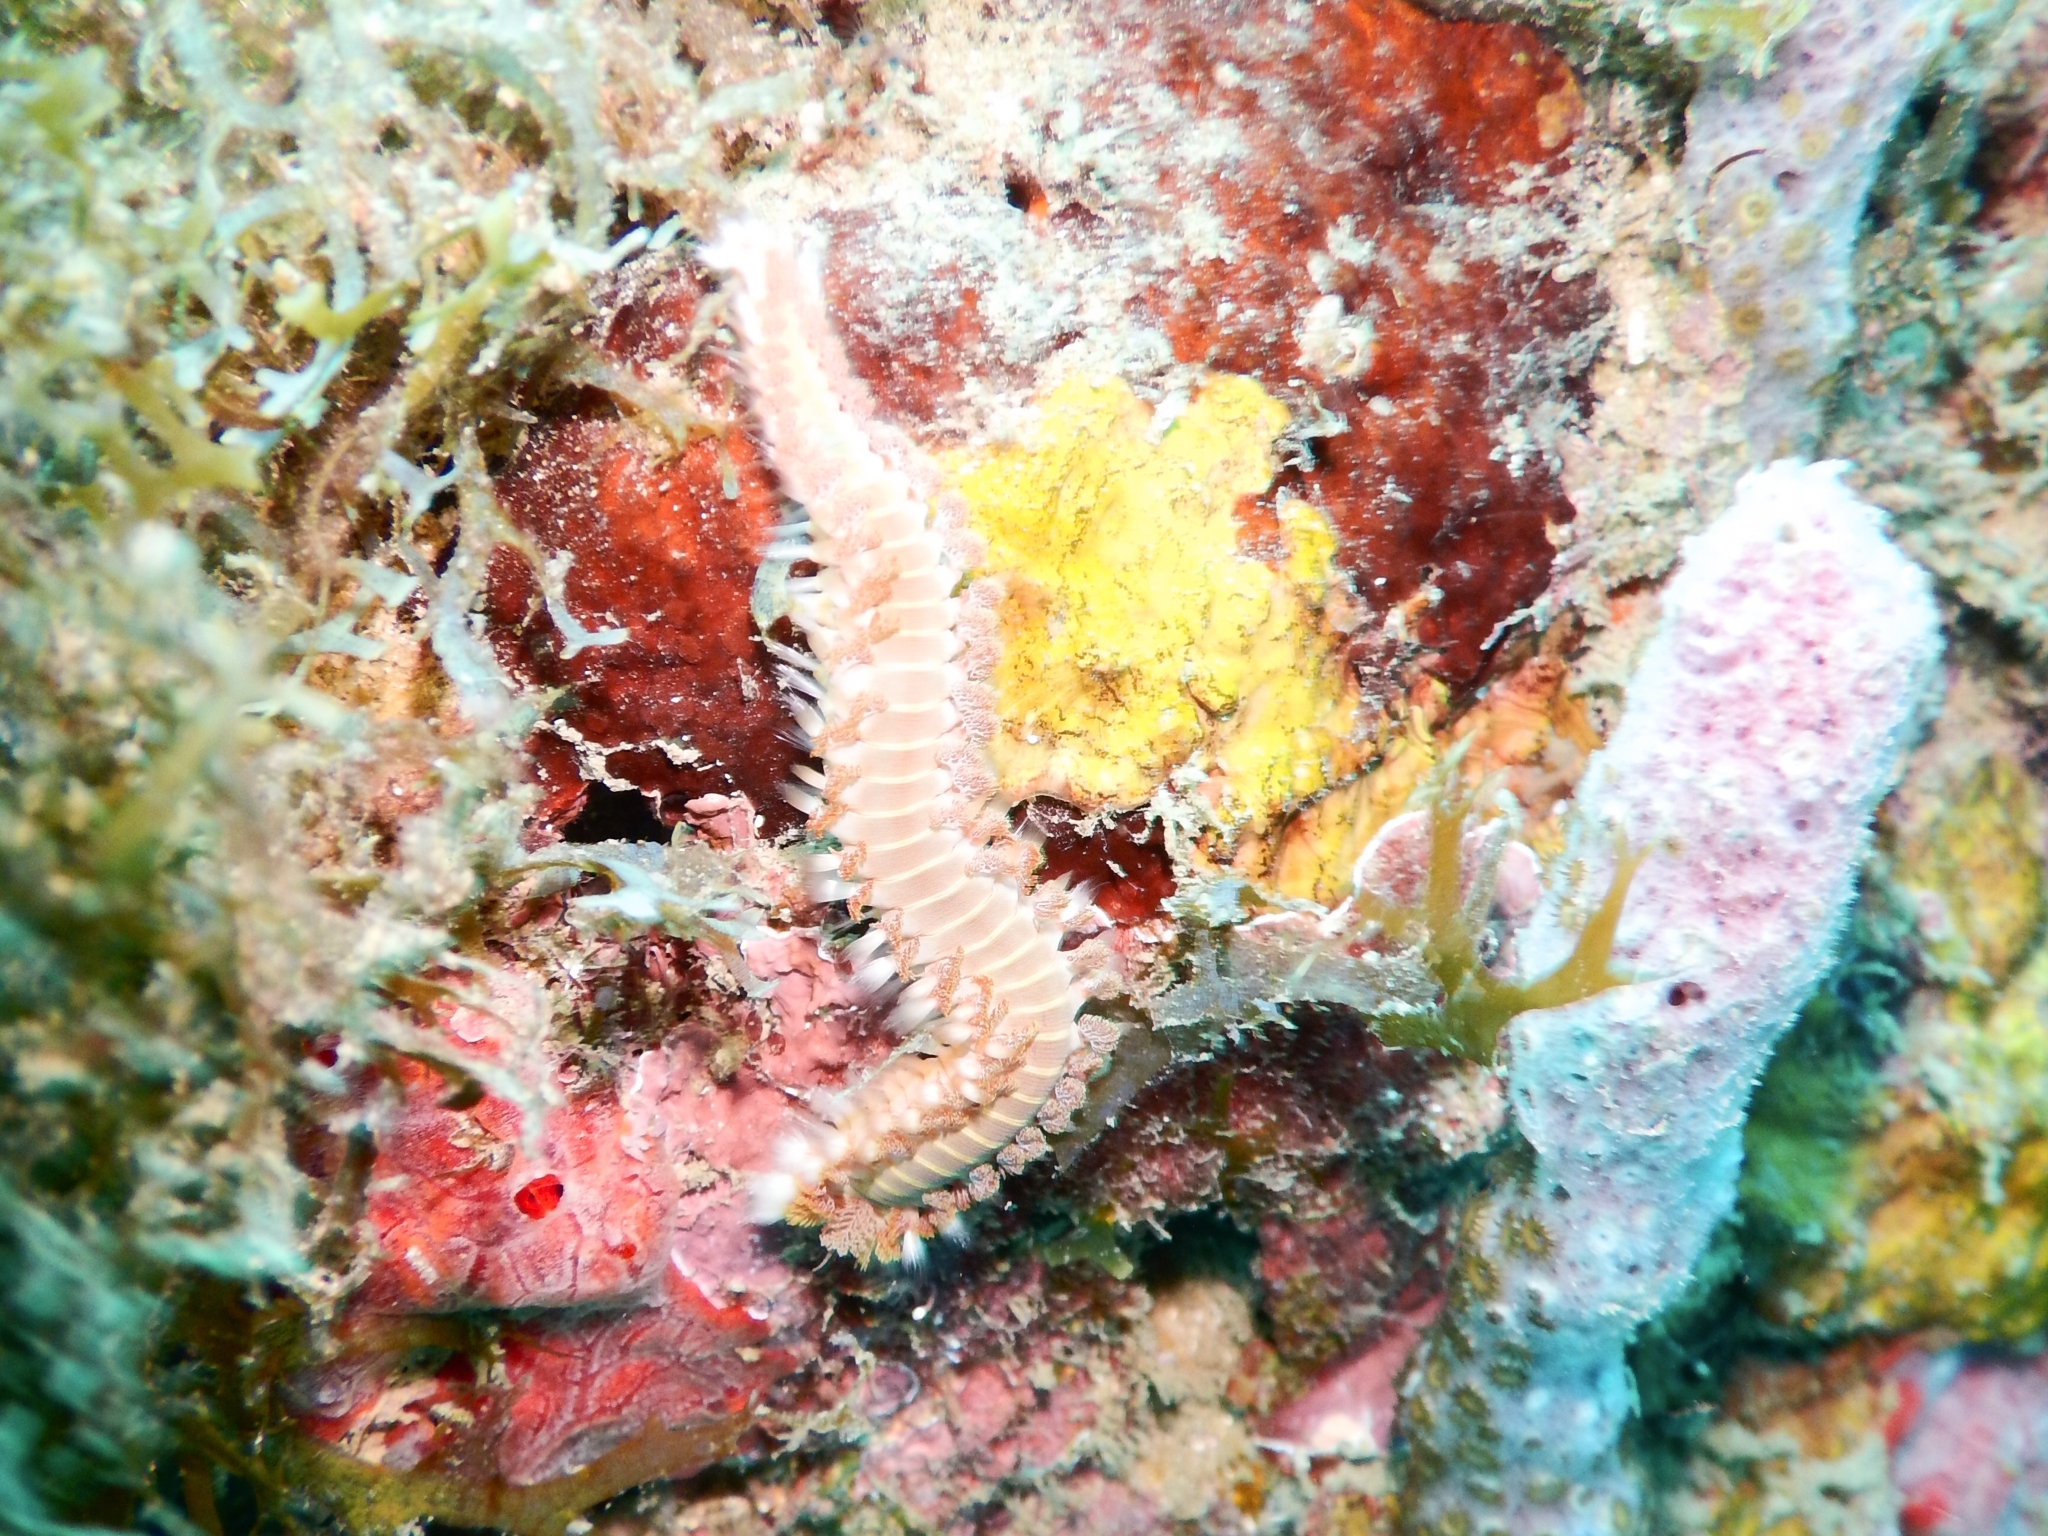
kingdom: Animalia
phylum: Annelida
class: Polychaeta
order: Amphinomida
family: Amphinomidae
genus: Hermodice
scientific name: Hermodice carunculata
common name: Bearded fireworm
